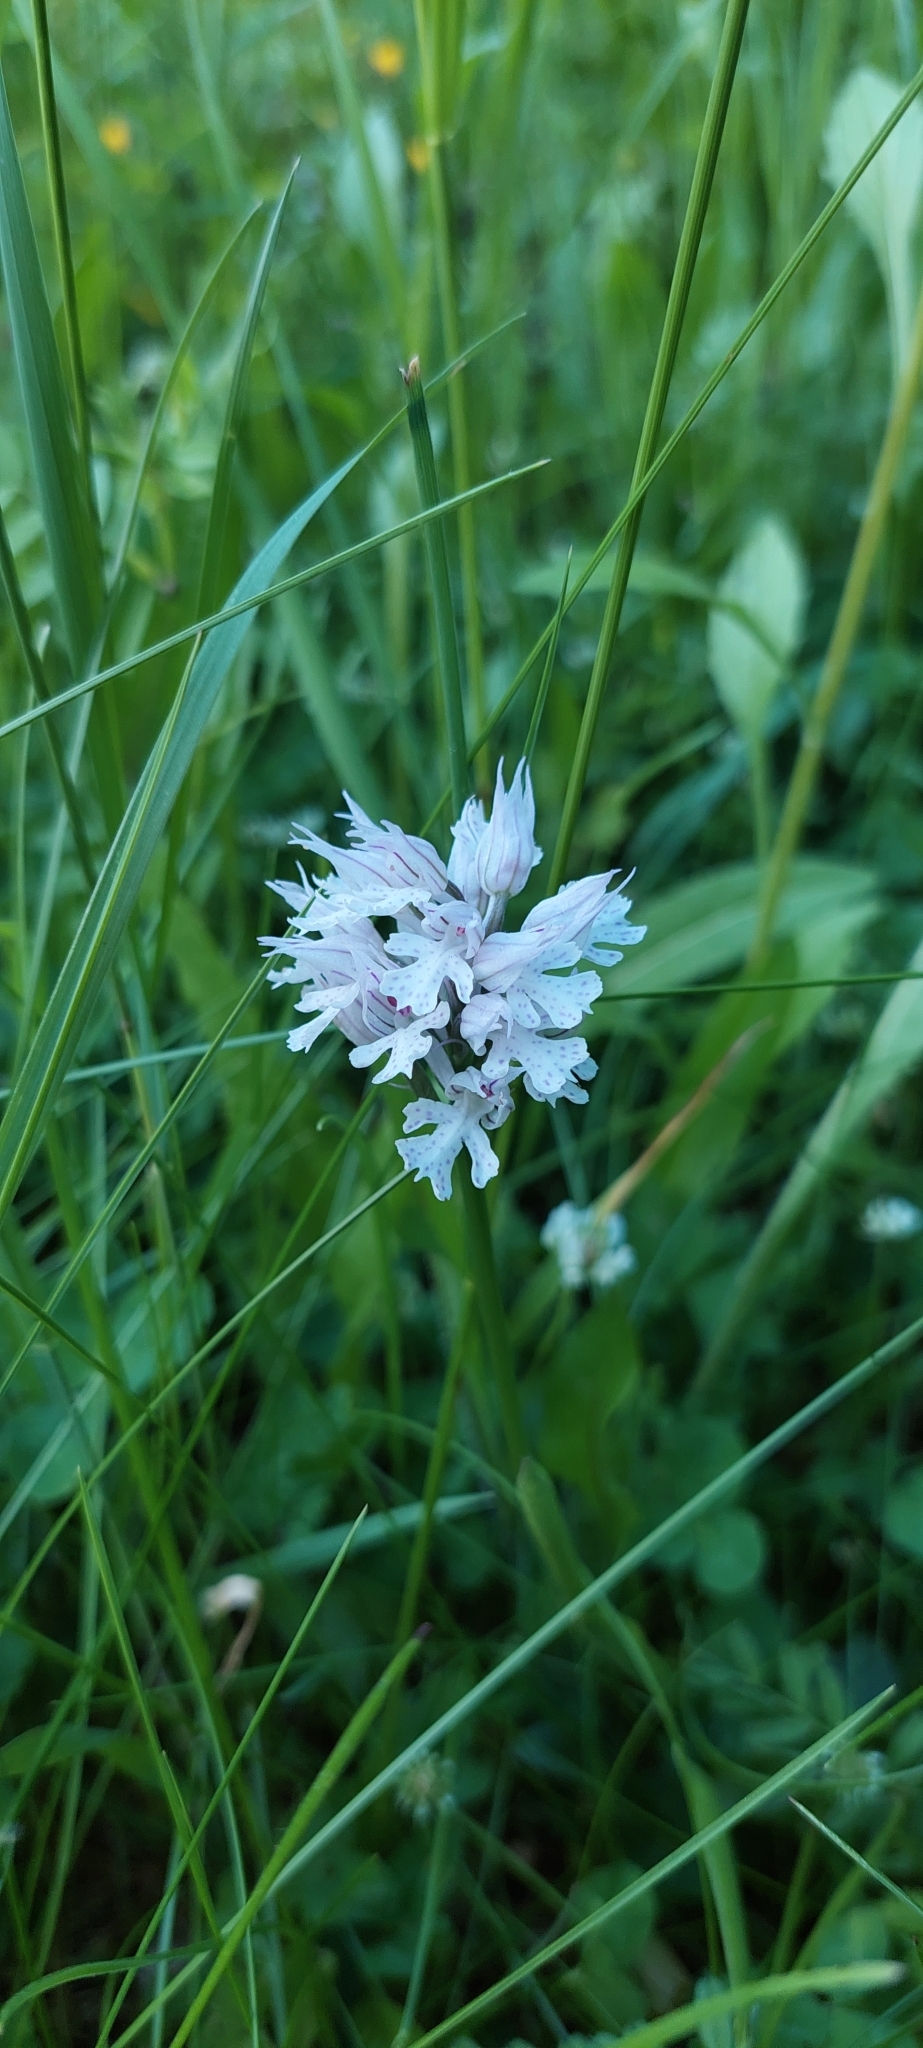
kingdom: Plantae
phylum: Tracheophyta
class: Liliopsida
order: Asparagales
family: Orchidaceae
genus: Neotinea
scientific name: Neotinea tridentata
